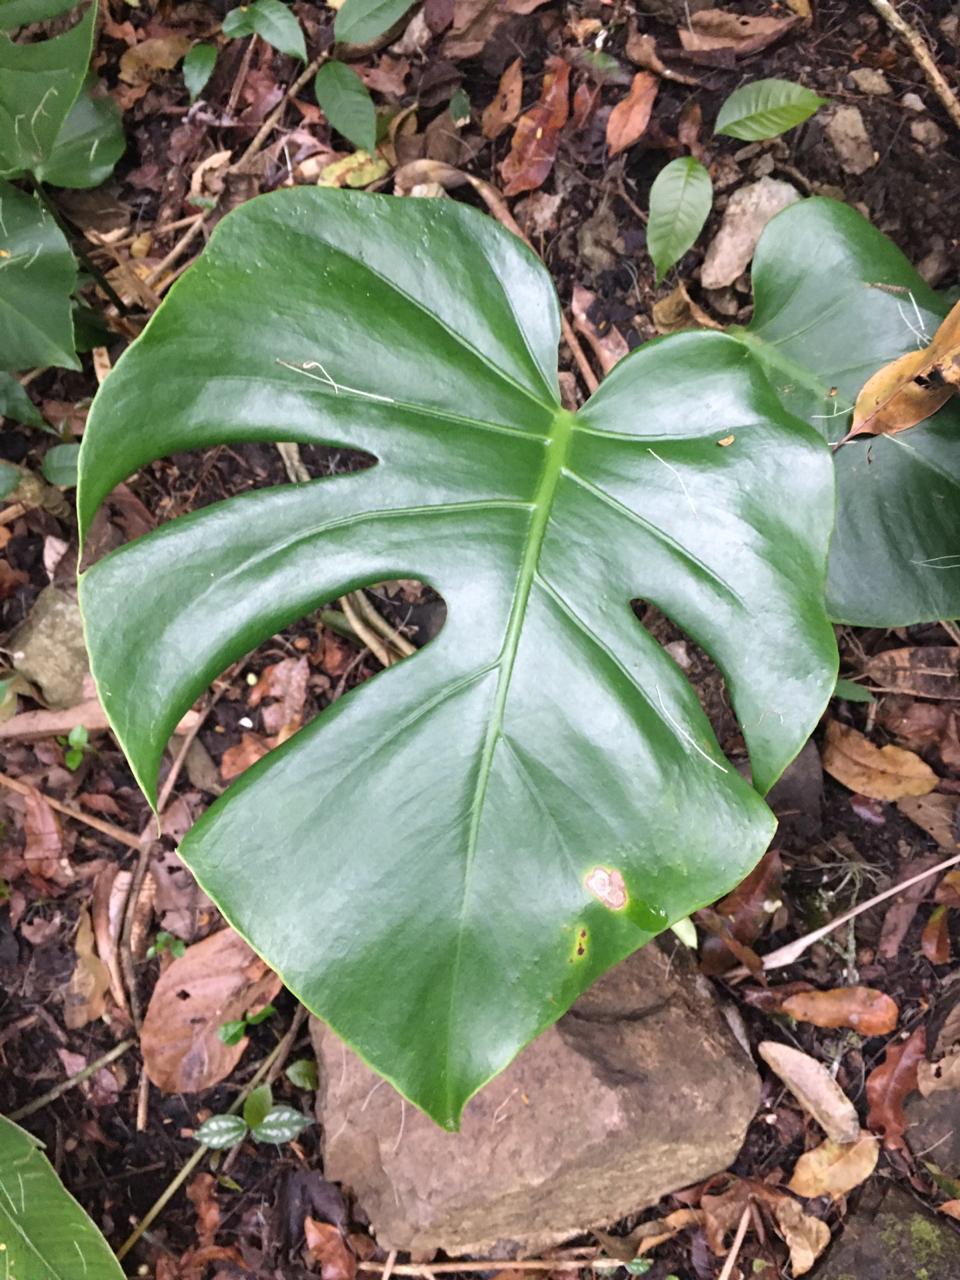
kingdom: Plantae
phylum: Tracheophyta
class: Liliopsida
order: Alismatales
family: Araceae
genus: Monstera
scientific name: Monstera deliciosa
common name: Cut-leaf-philodendron
